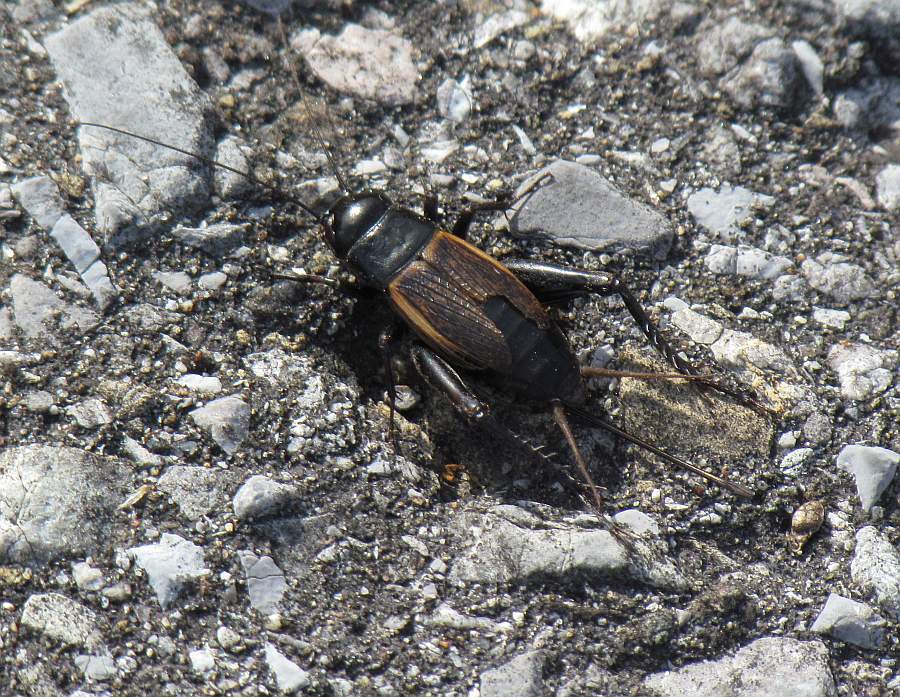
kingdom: Animalia
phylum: Arthropoda
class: Insecta
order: Orthoptera
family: Gryllidae
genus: Gryllus
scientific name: Gryllus pennsylvanicus
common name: Fall field cricket
